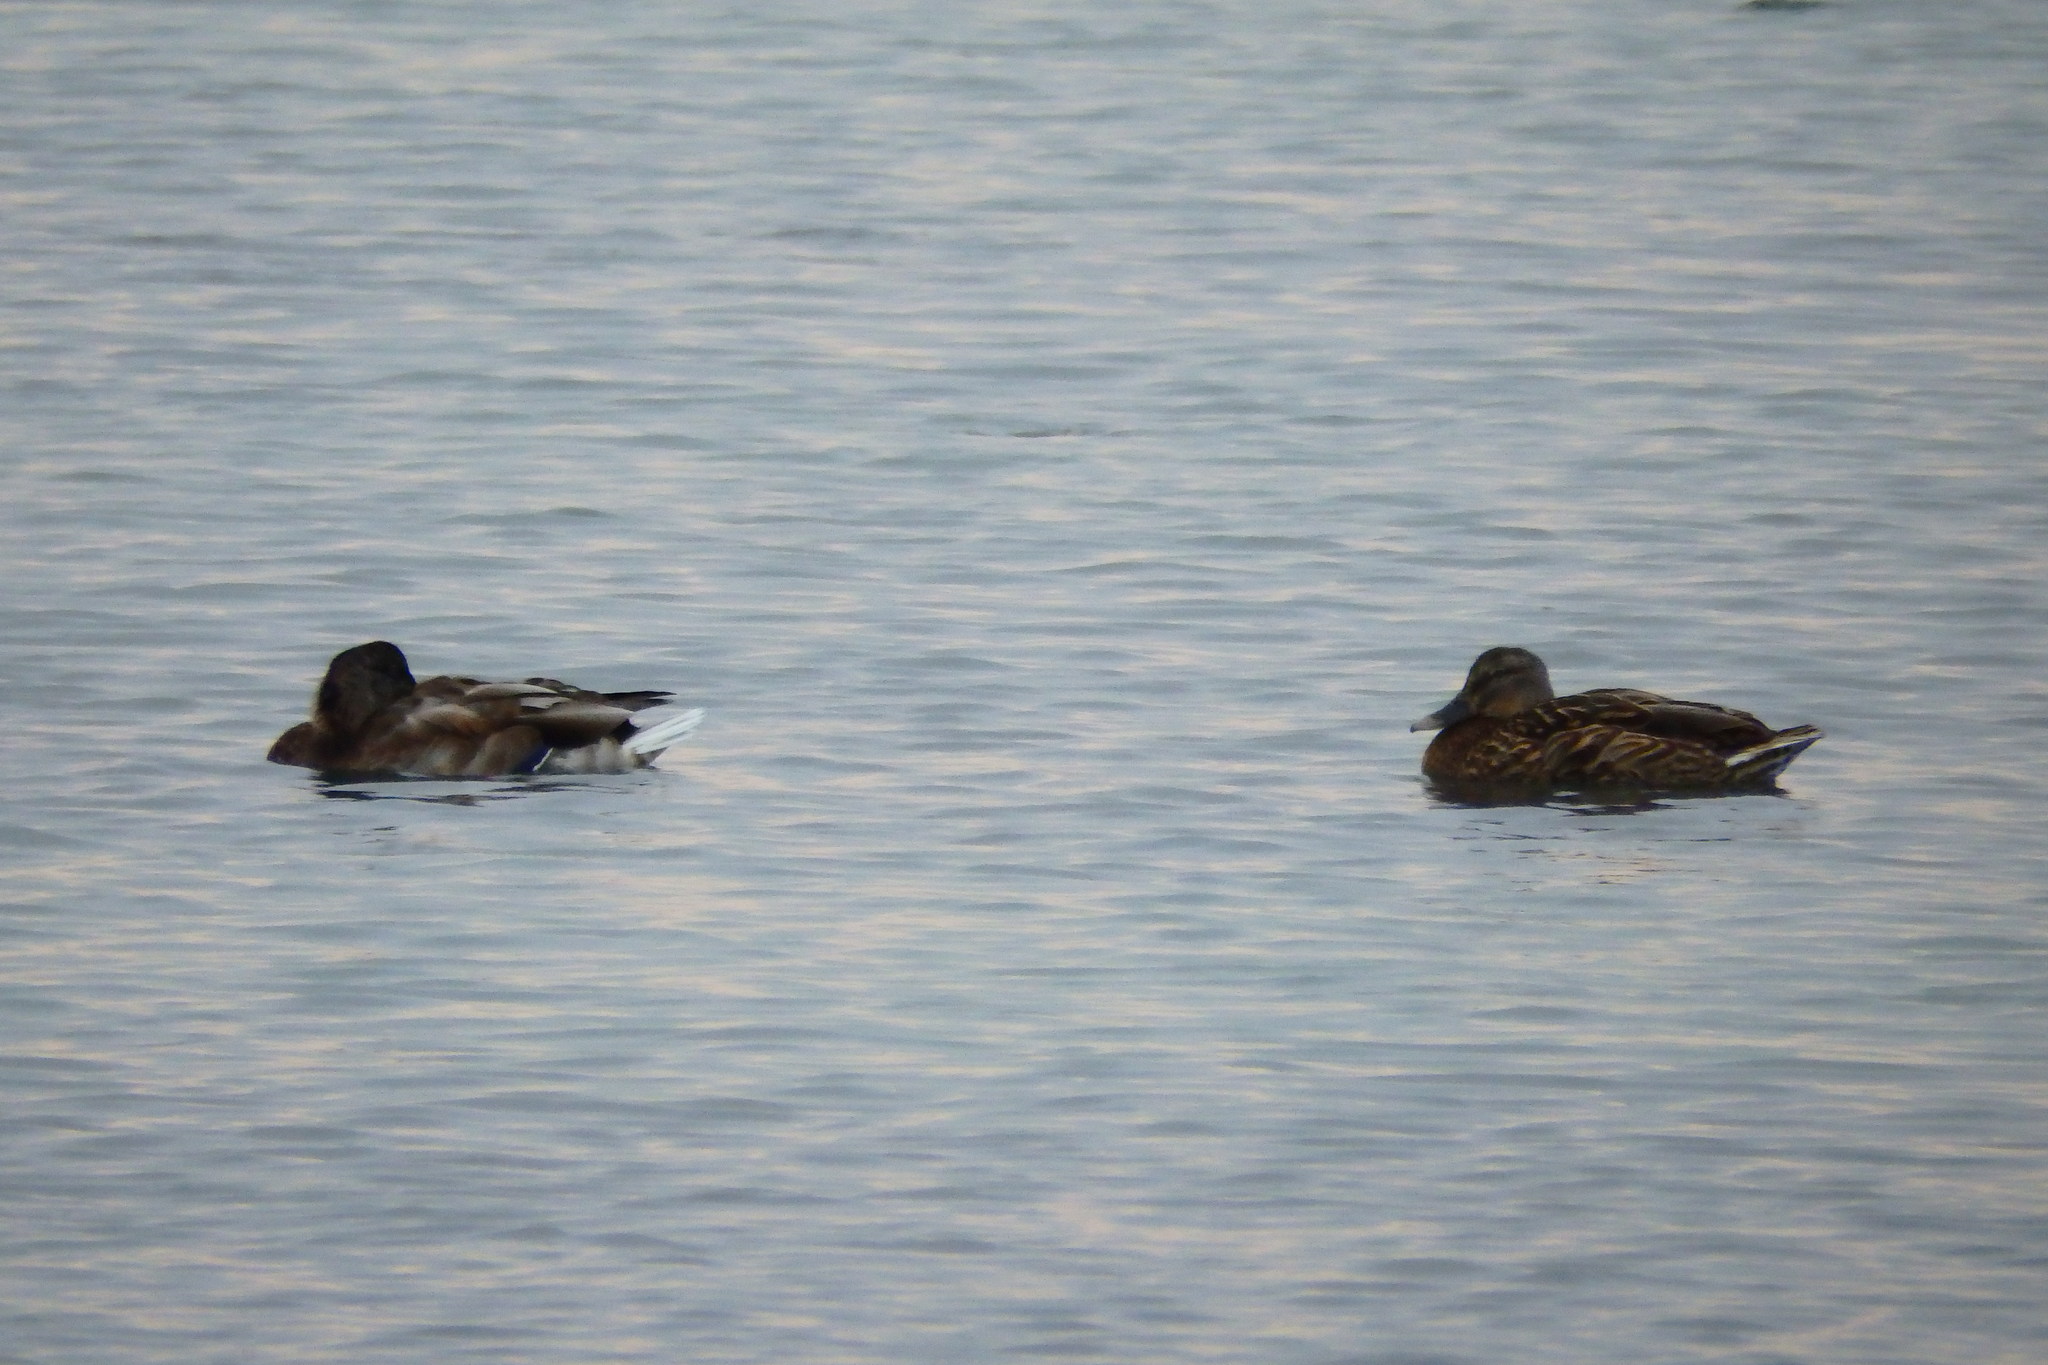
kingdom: Animalia
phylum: Chordata
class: Aves
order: Anseriformes
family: Anatidae
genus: Anas
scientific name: Anas platyrhynchos
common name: Mallard
